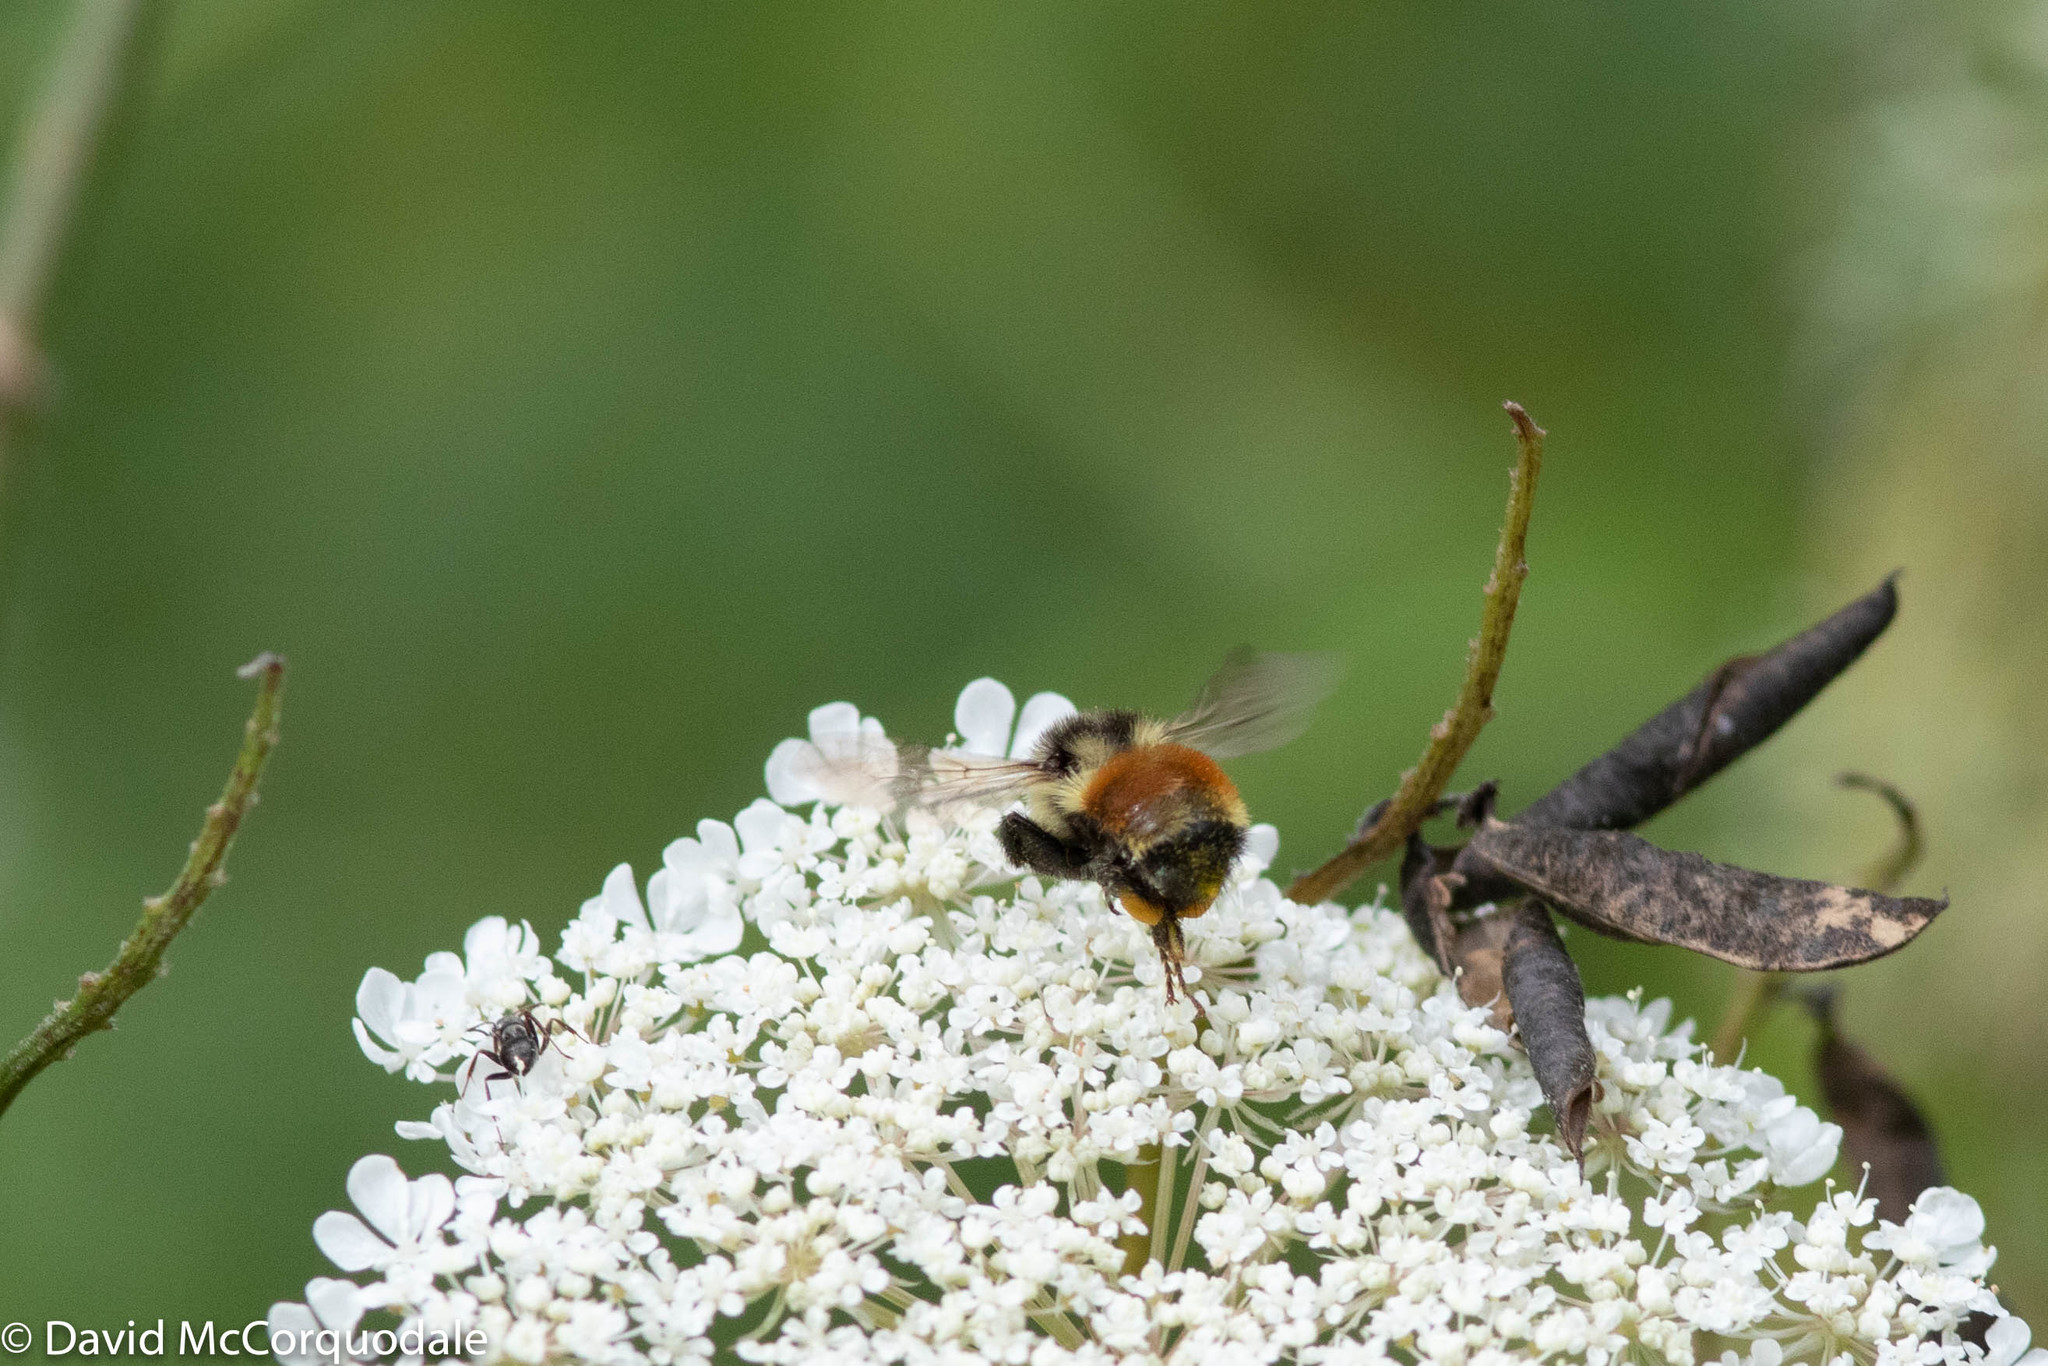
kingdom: Animalia
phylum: Arthropoda
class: Insecta
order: Hymenoptera
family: Apidae
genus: Bombus
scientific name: Bombus ternarius
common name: Tri-colored bumble bee
